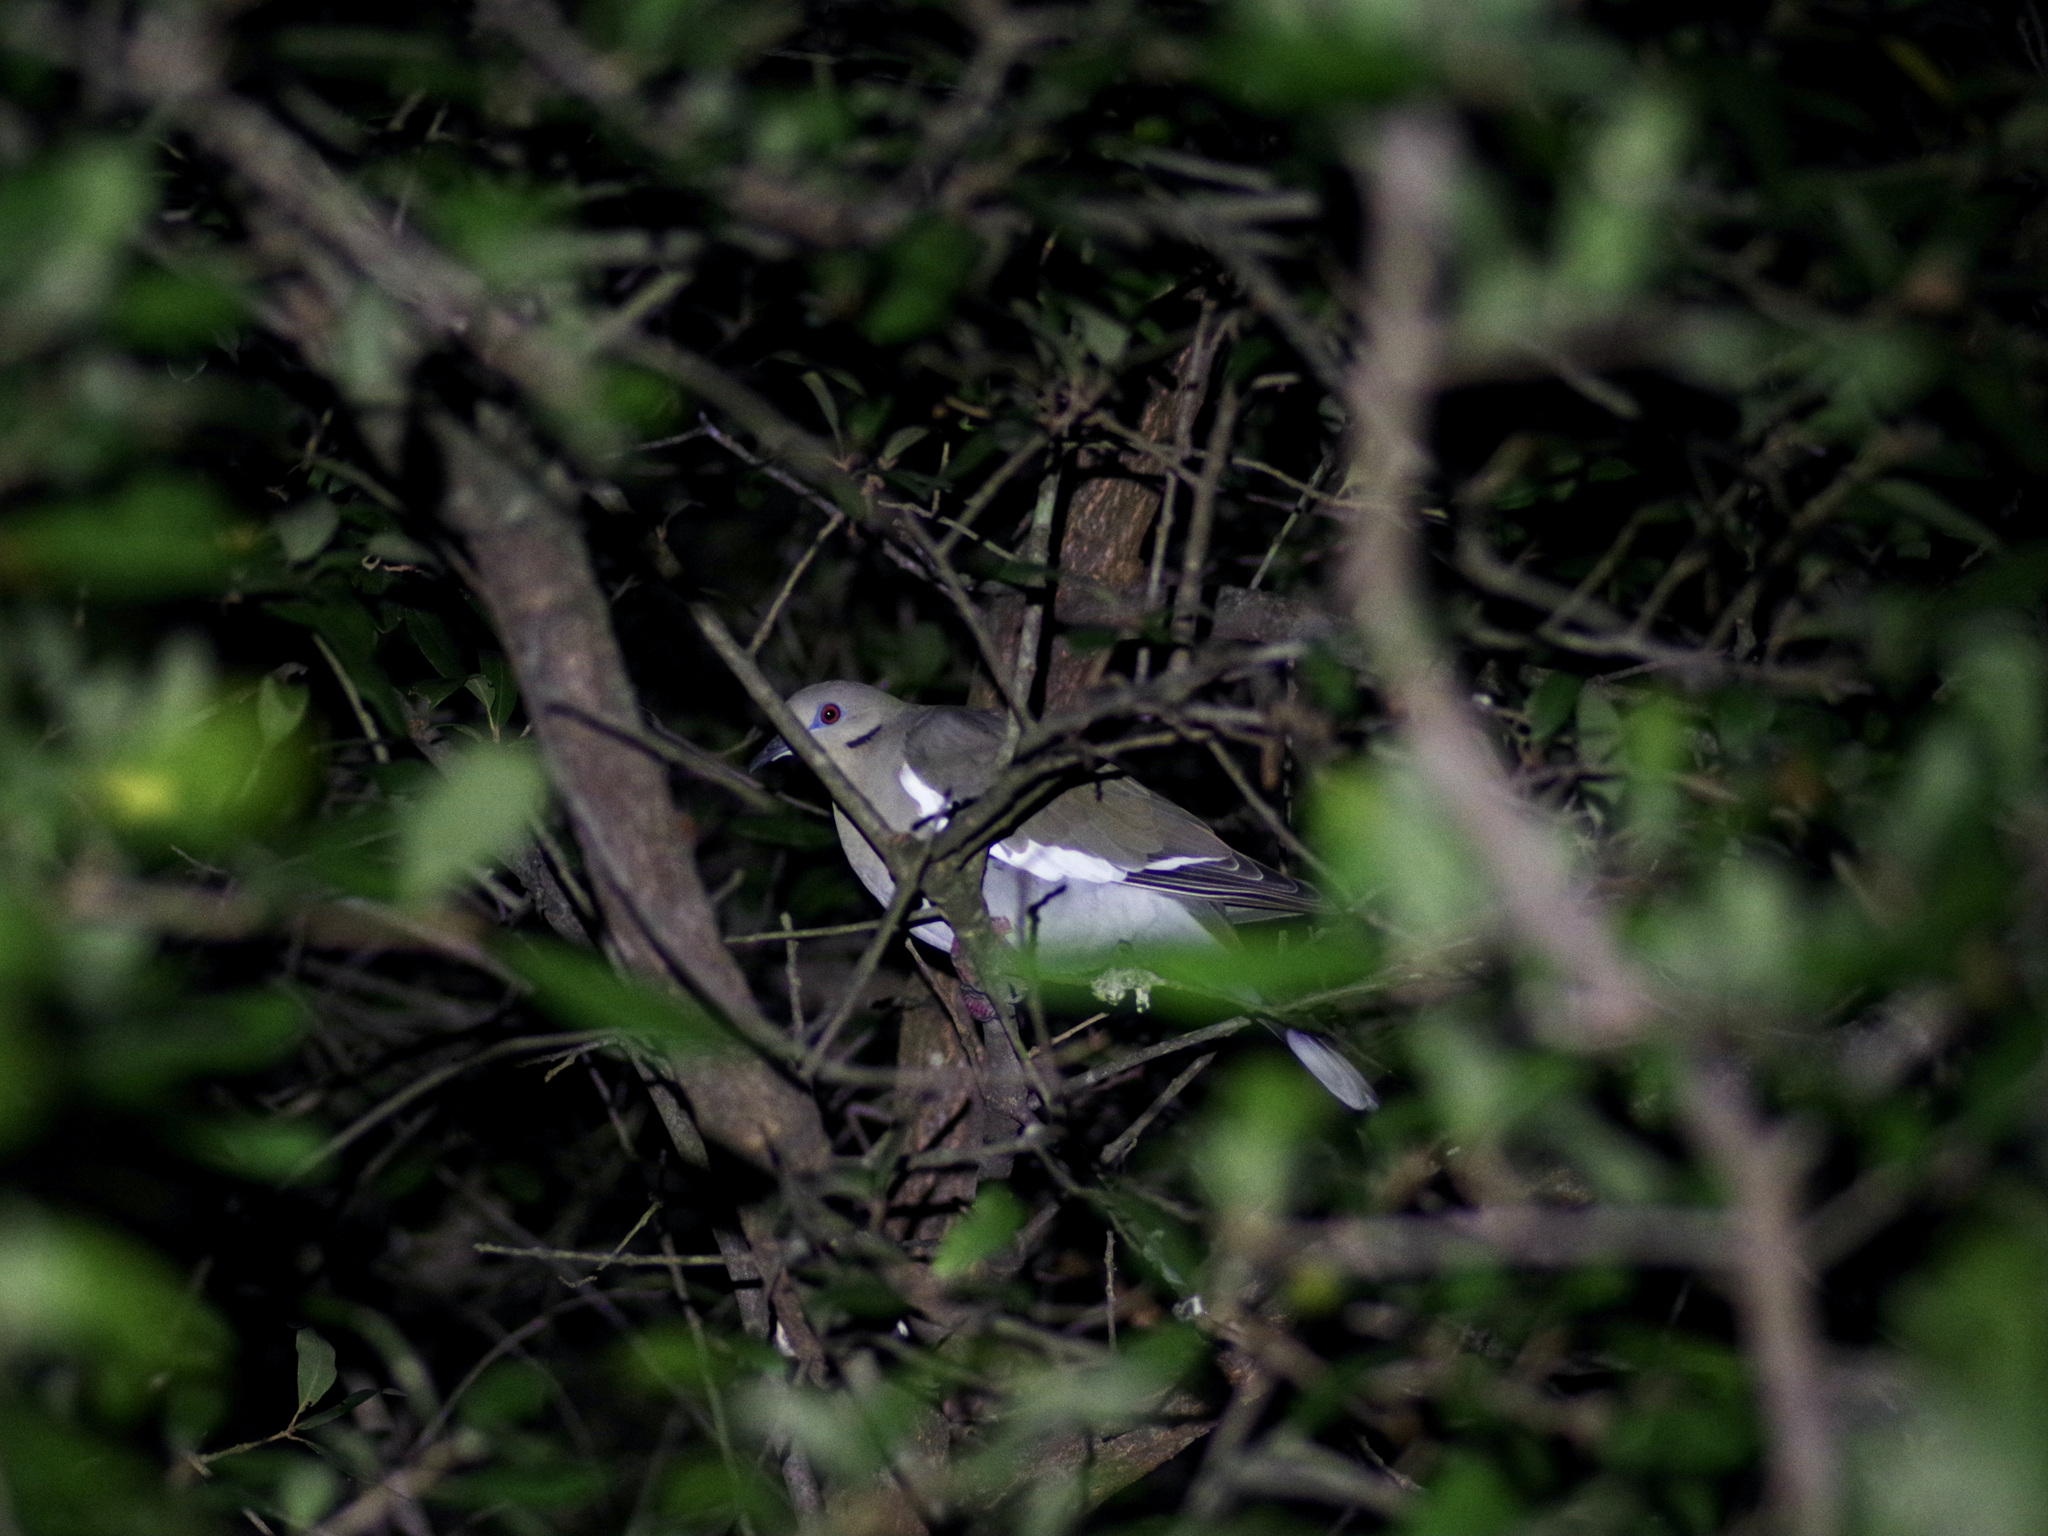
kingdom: Animalia
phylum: Chordata
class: Aves
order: Columbiformes
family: Columbidae
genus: Zenaida
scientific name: Zenaida asiatica
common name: White-winged dove
